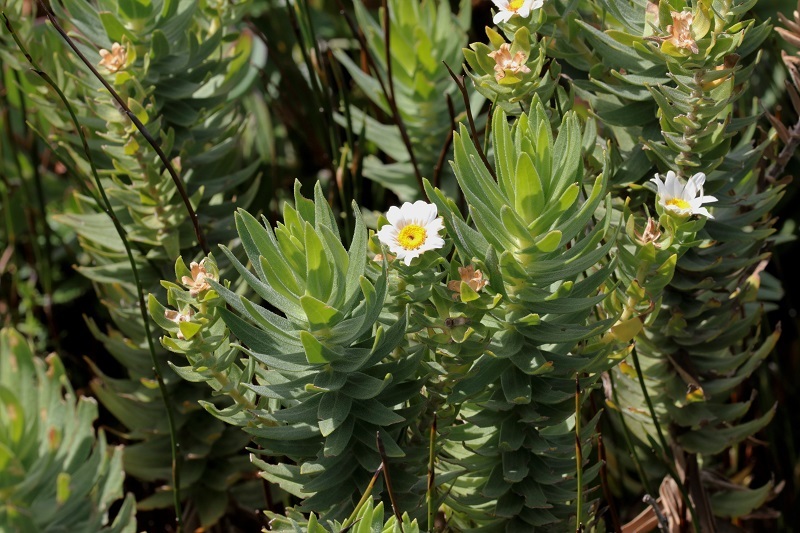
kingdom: Plantae
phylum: Tracheophyta
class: Magnoliopsida
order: Asterales
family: Asteraceae
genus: Osmitopsis
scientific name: Osmitopsis asteriscoides
